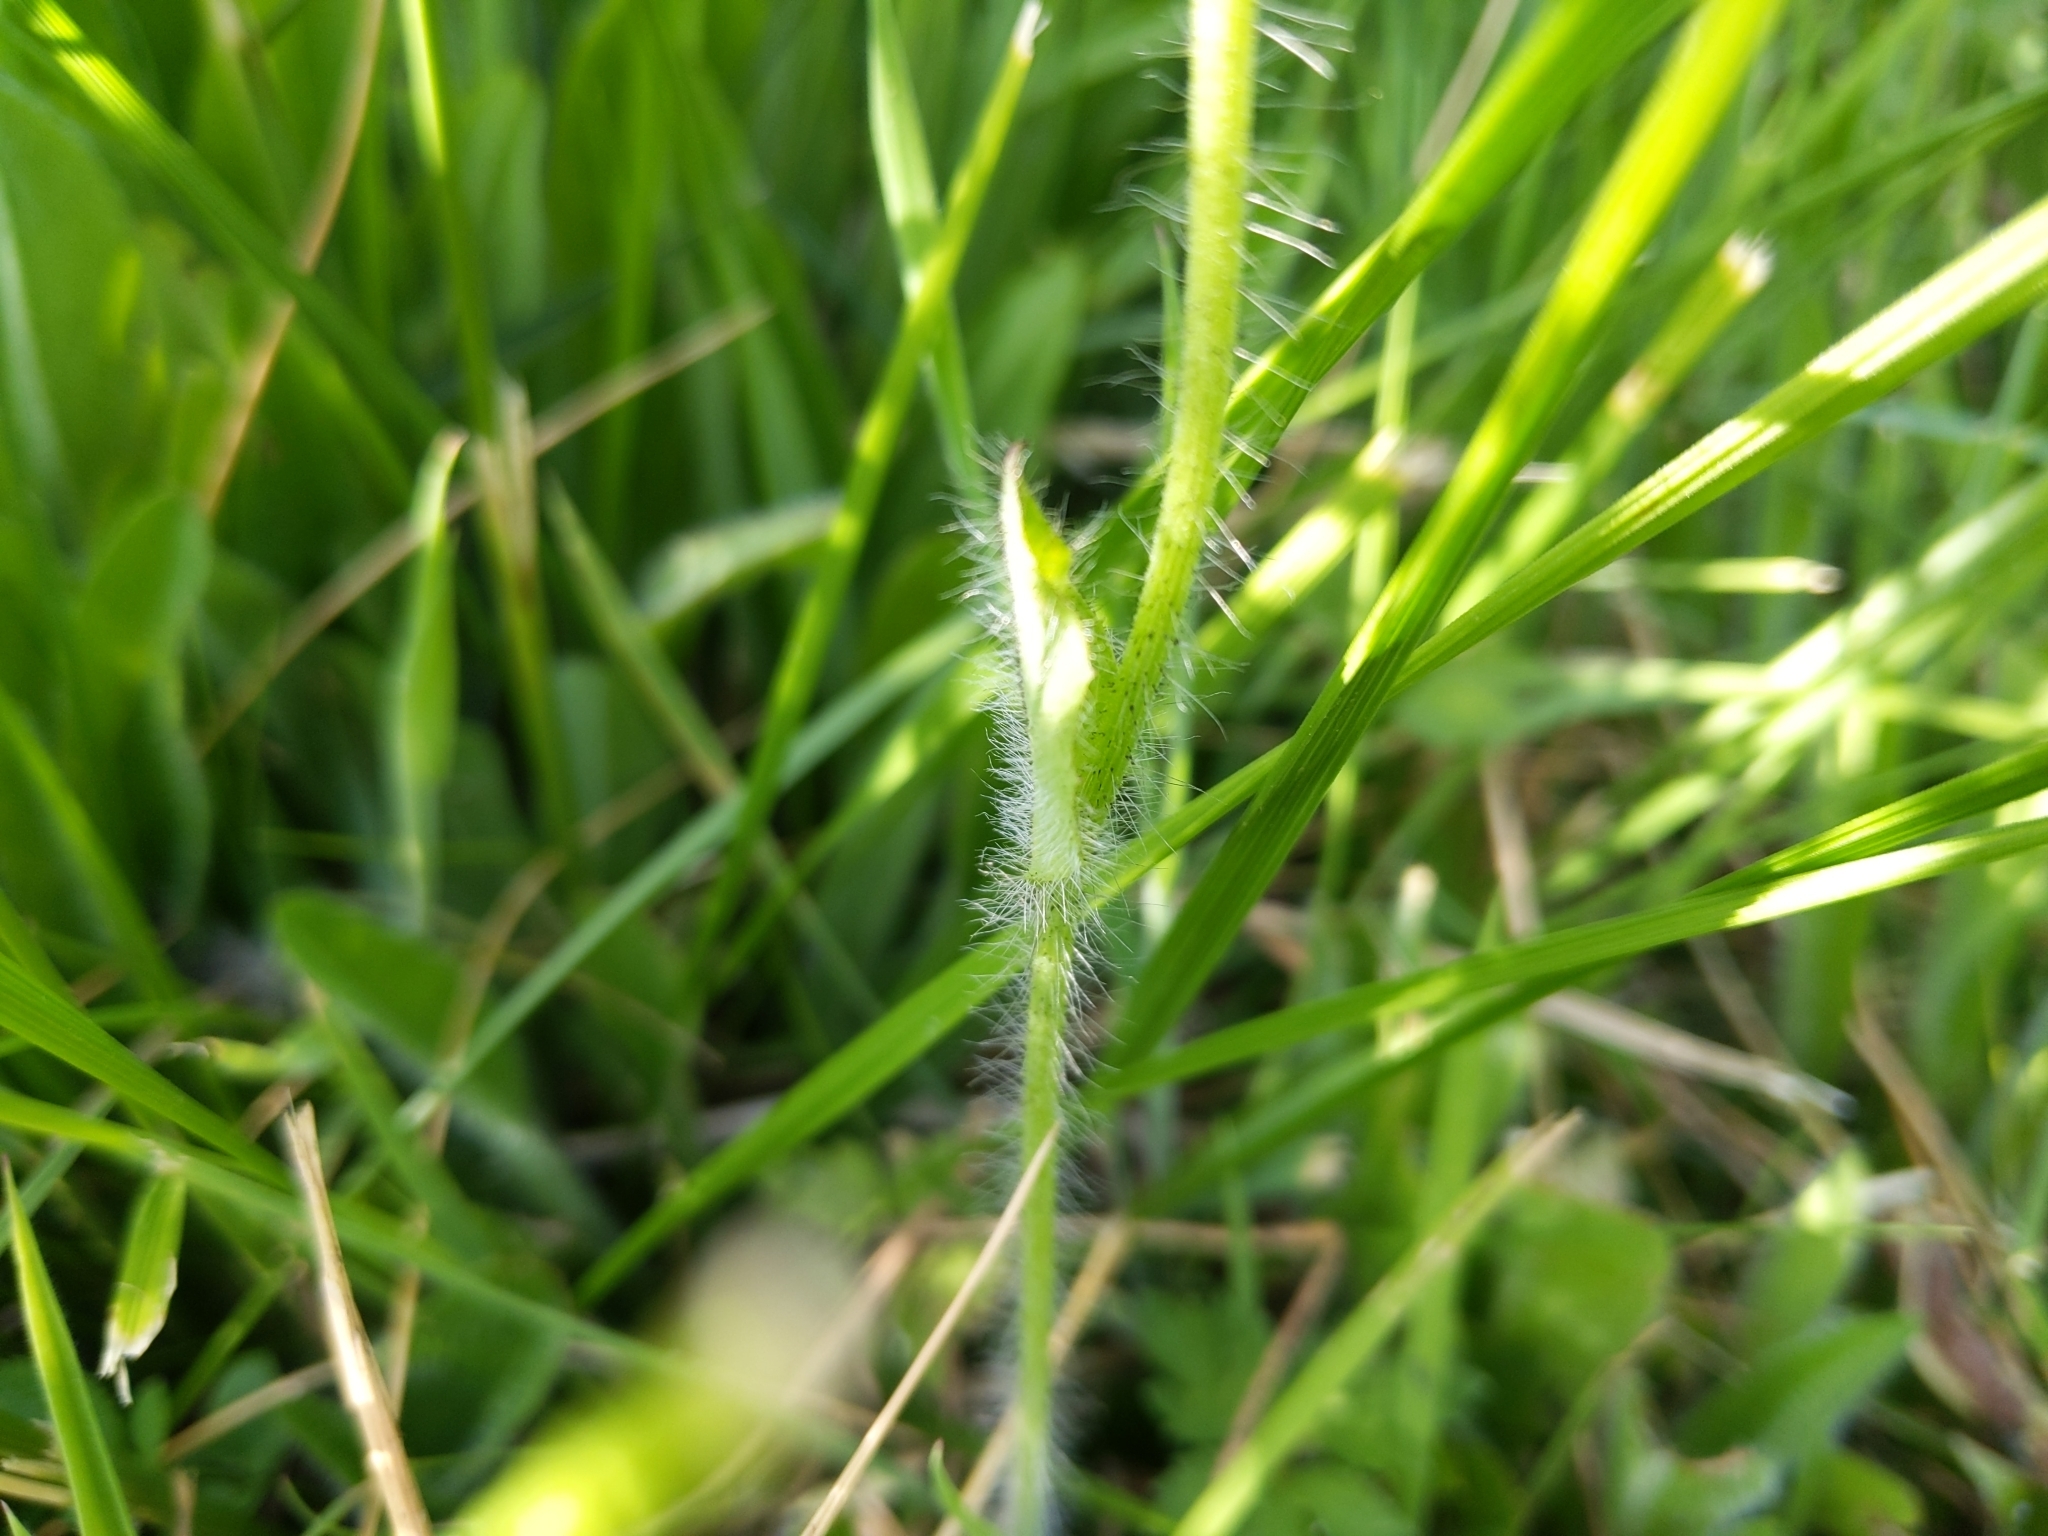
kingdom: Plantae
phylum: Tracheophyta
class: Magnoliopsida
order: Asterales
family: Asteraceae
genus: Pilosella
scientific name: Pilosella aurantiaca
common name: Fox-and-cubs
